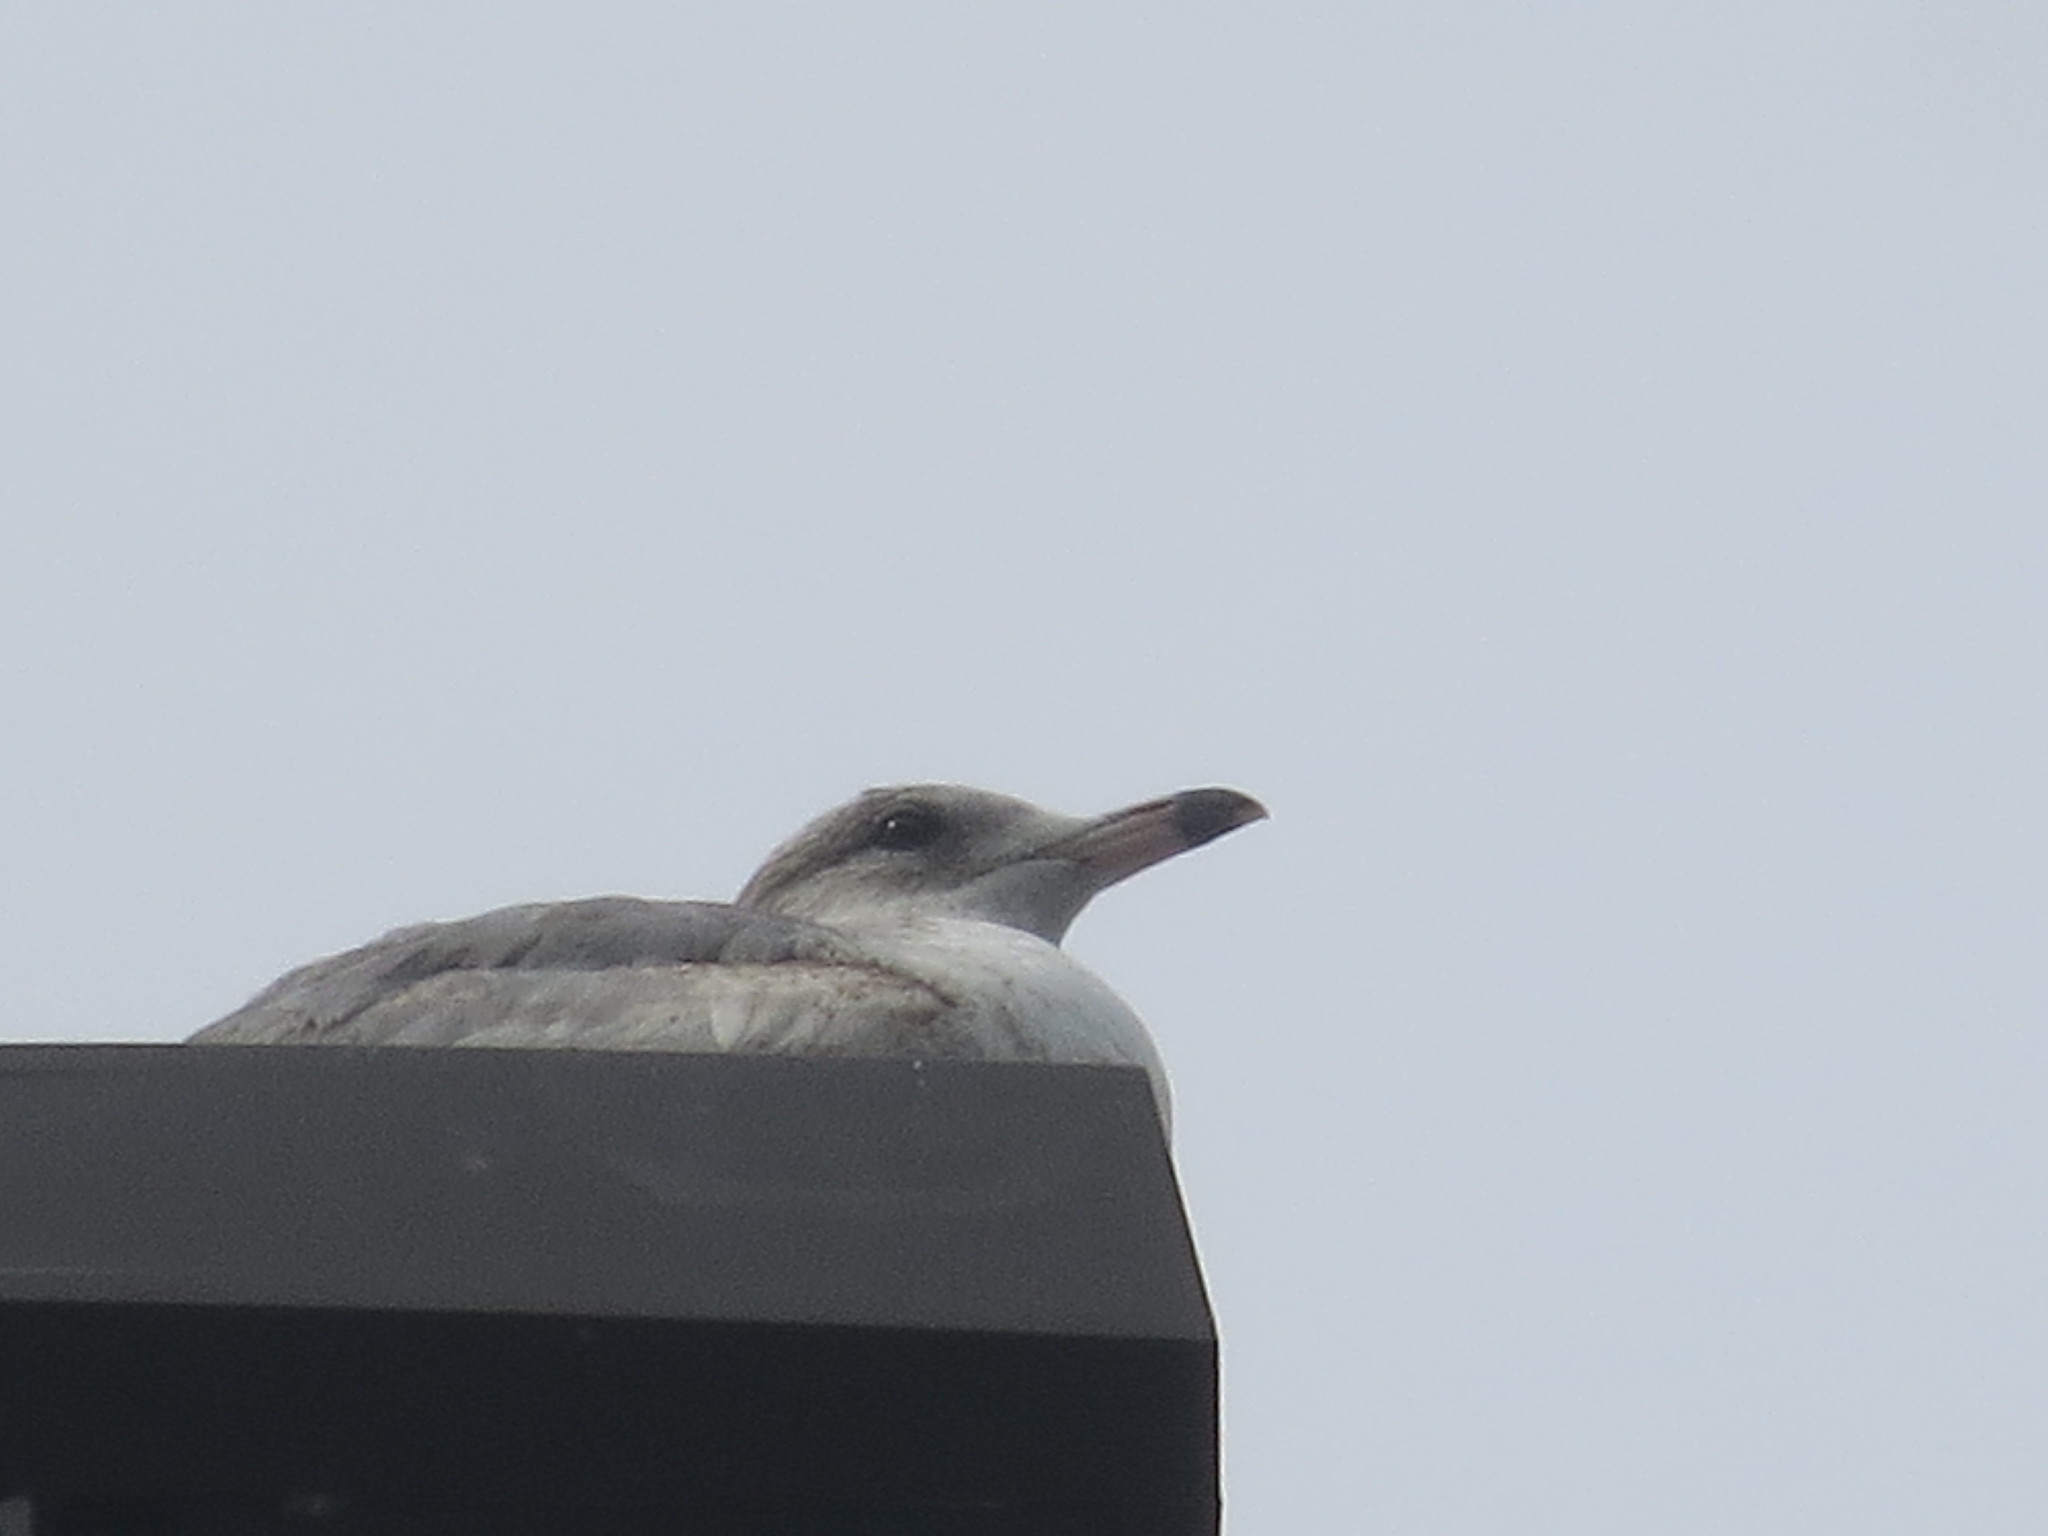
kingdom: Animalia
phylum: Chordata
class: Aves
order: Charadriiformes
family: Laridae
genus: Larus
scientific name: Larus delawarensis
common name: Ring-billed gull
